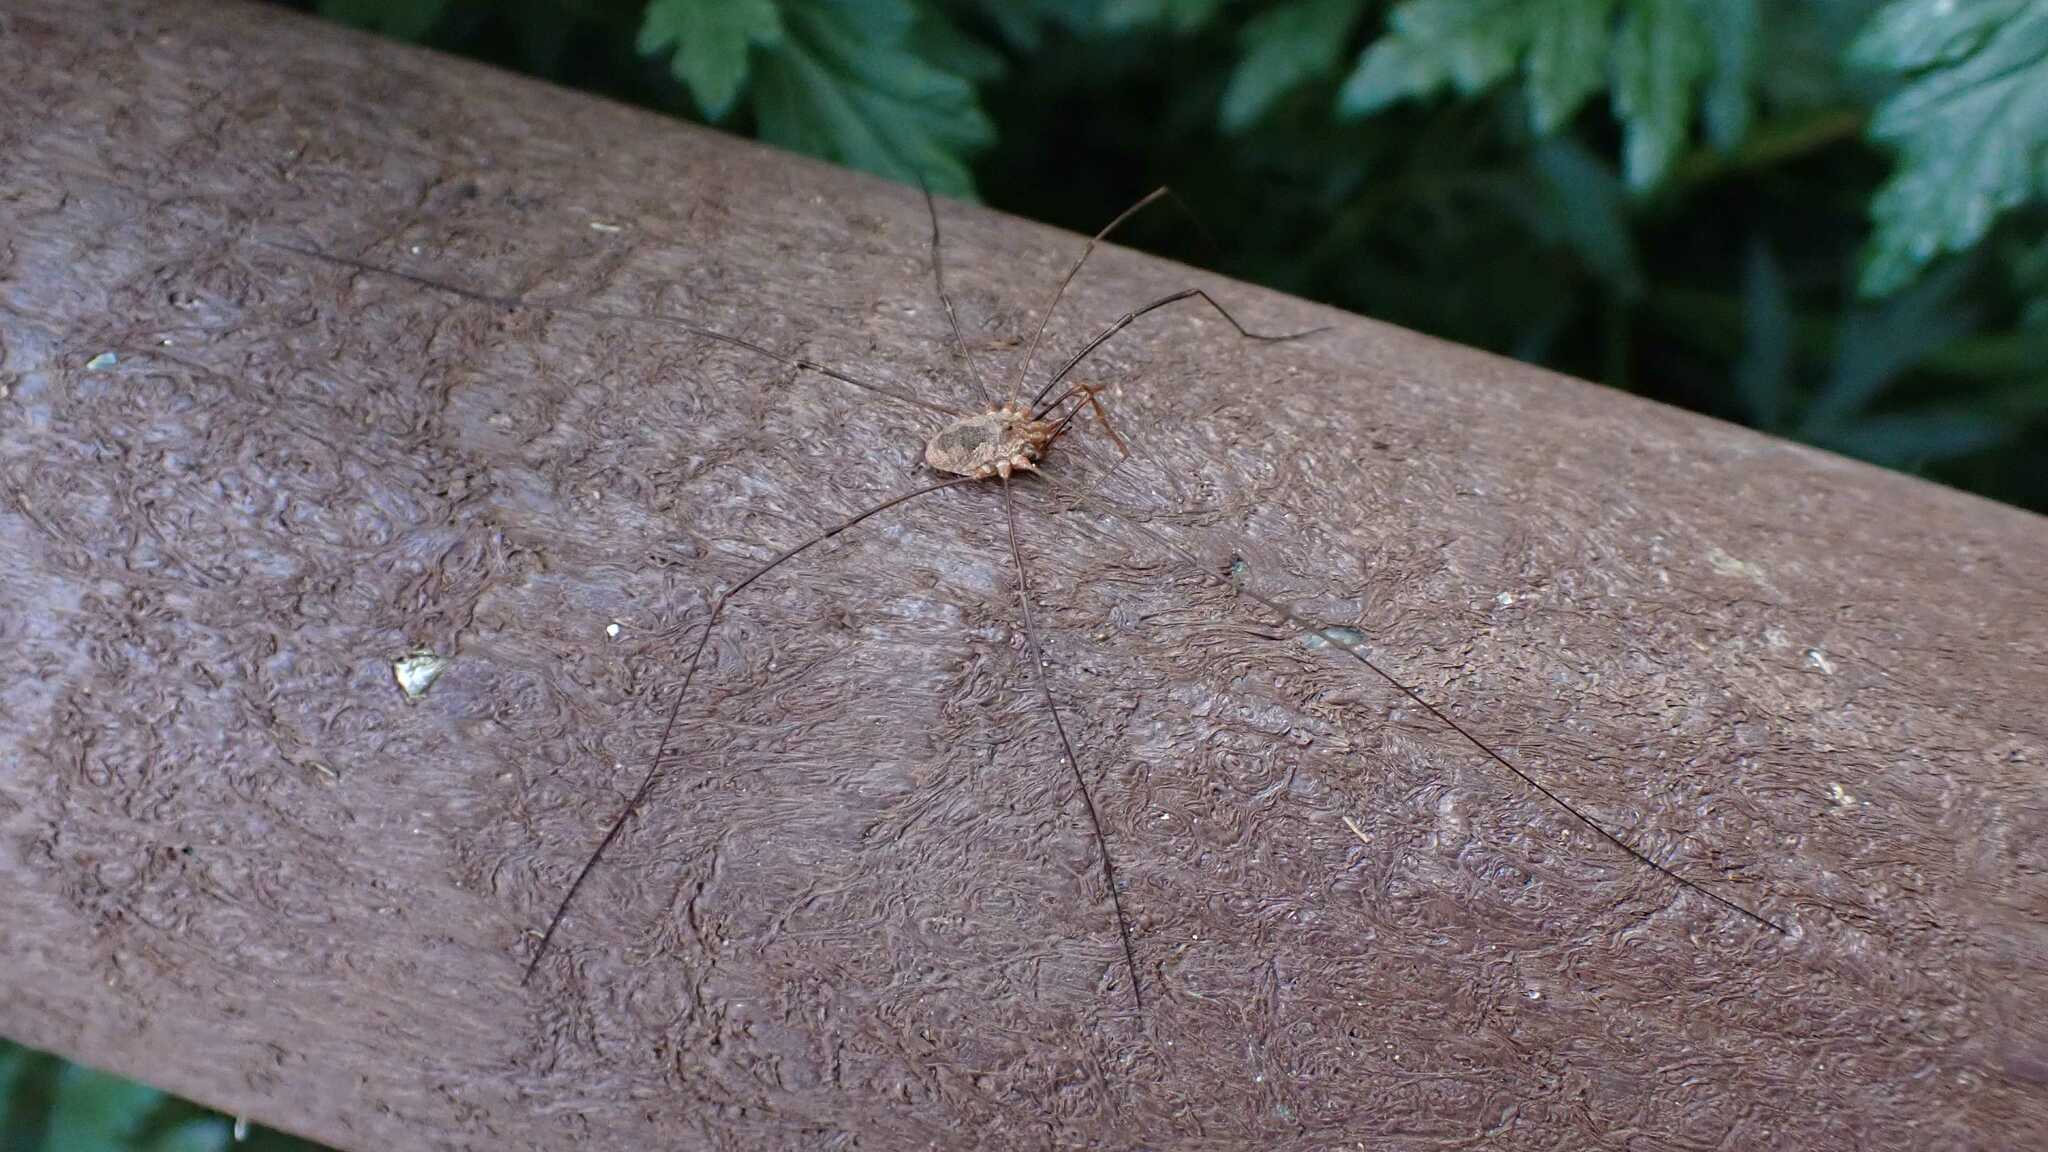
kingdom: Animalia
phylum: Arthropoda
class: Arachnida
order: Opiliones
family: Phalangiidae
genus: Phalangium
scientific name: Phalangium opilio
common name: Daddy longleg
